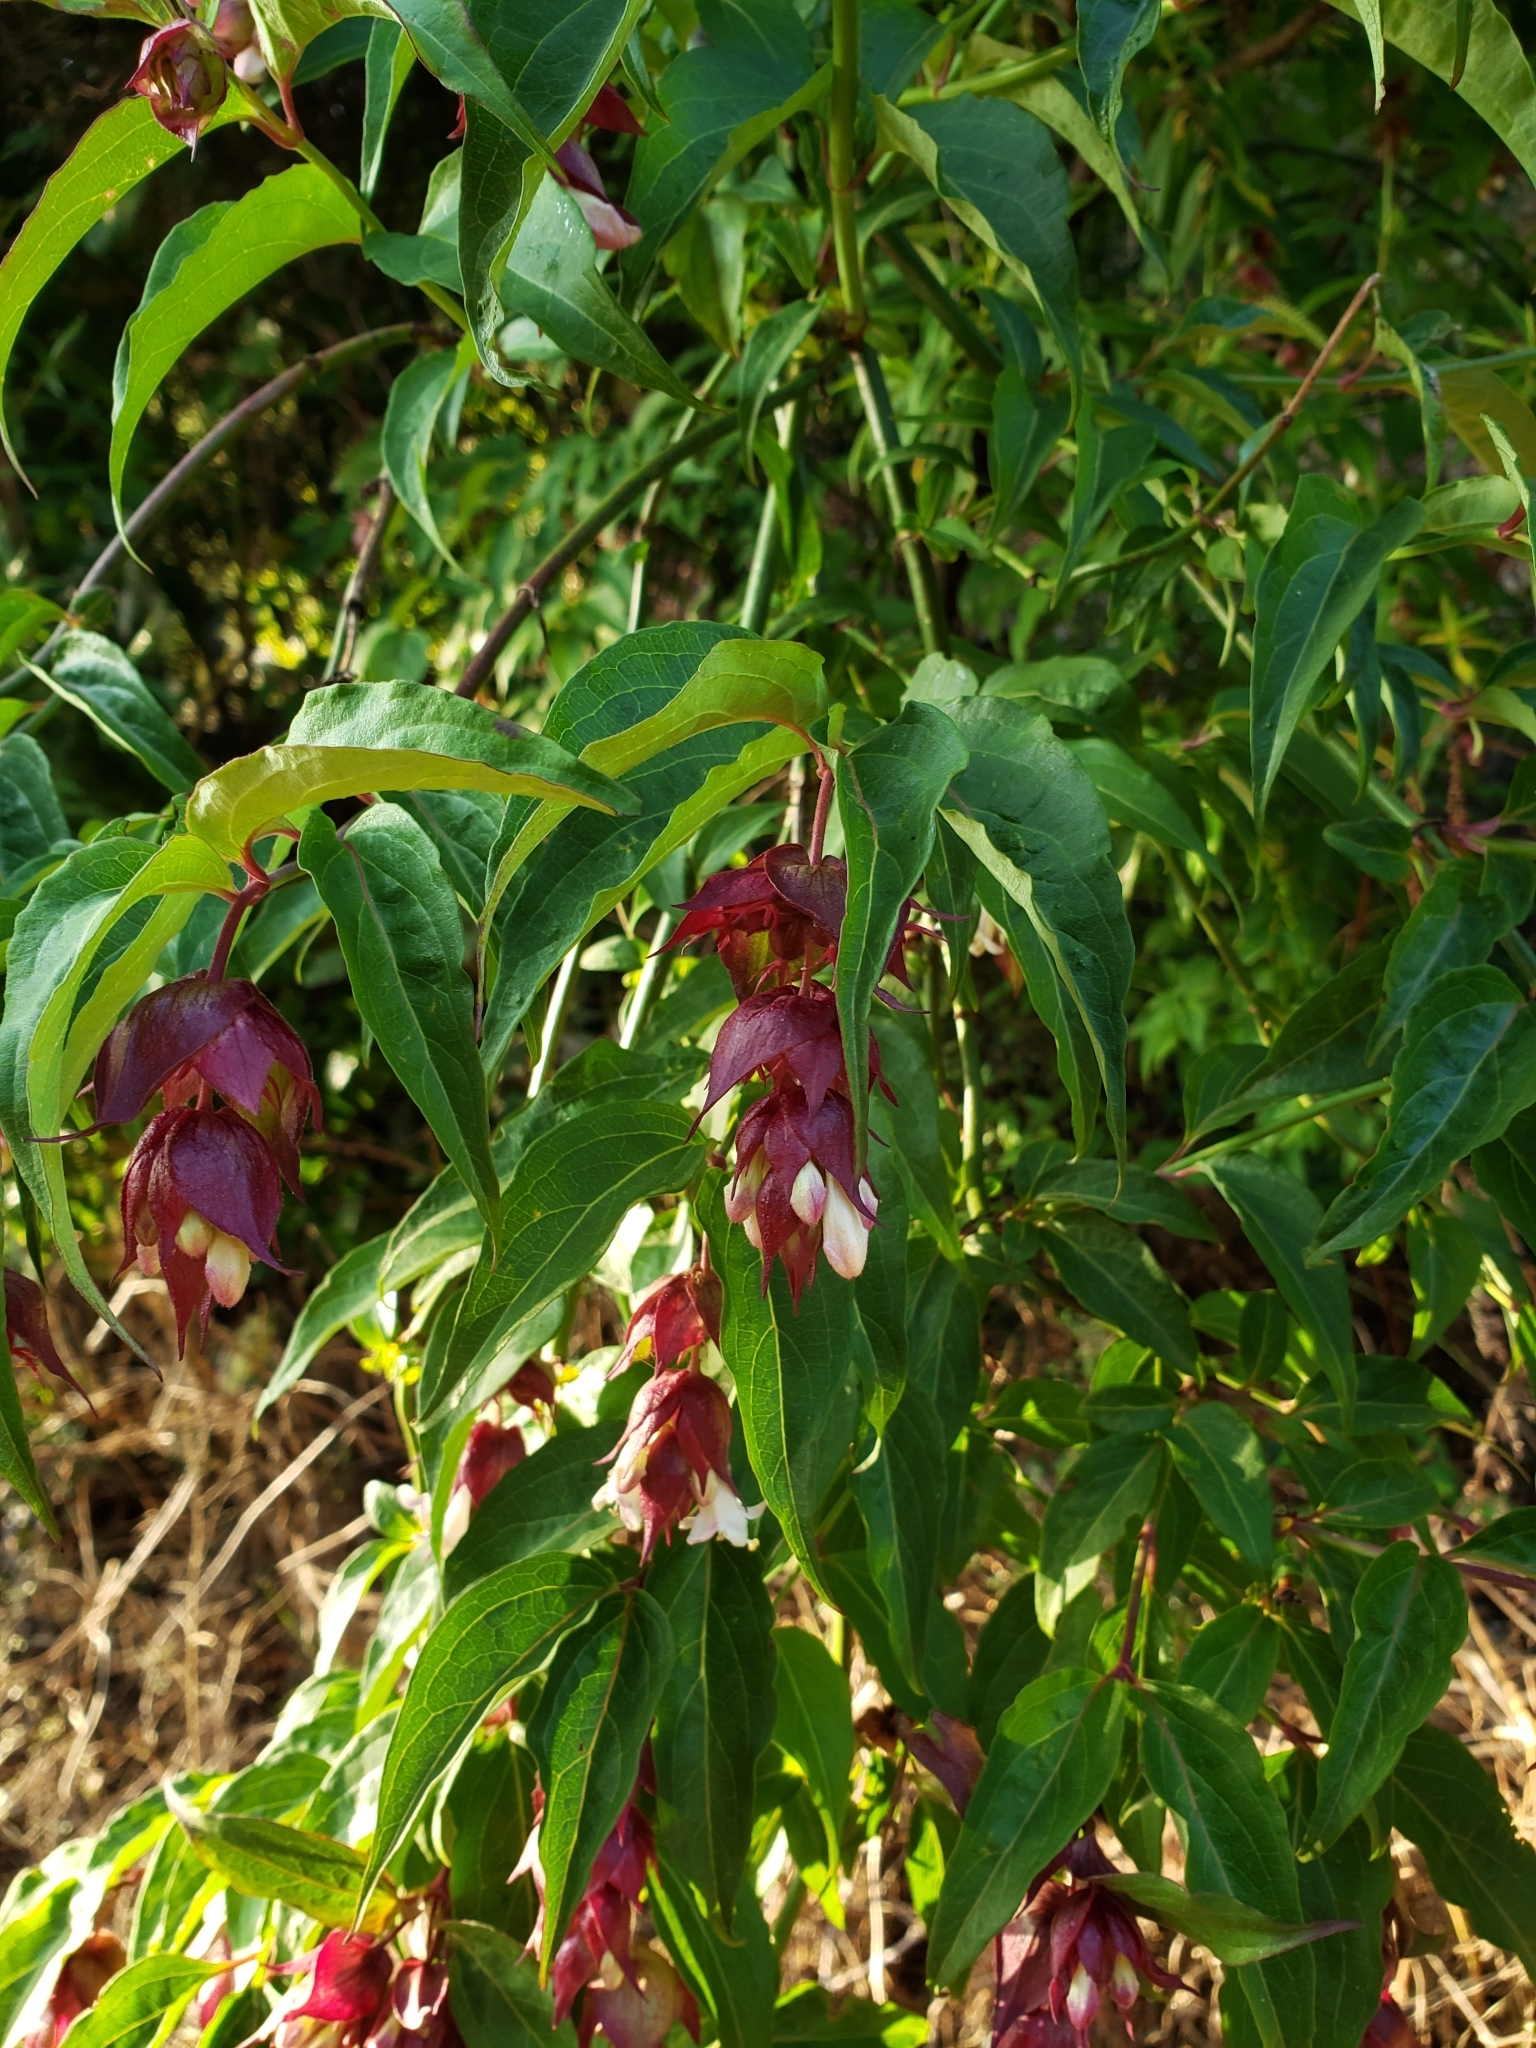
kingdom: Plantae
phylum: Tracheophyta
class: Magnoliopsida
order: Dipsacales
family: Caprifoliaceae
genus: Leycesteria
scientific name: Leycesteria formosa
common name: Himalayan honeysuckle
